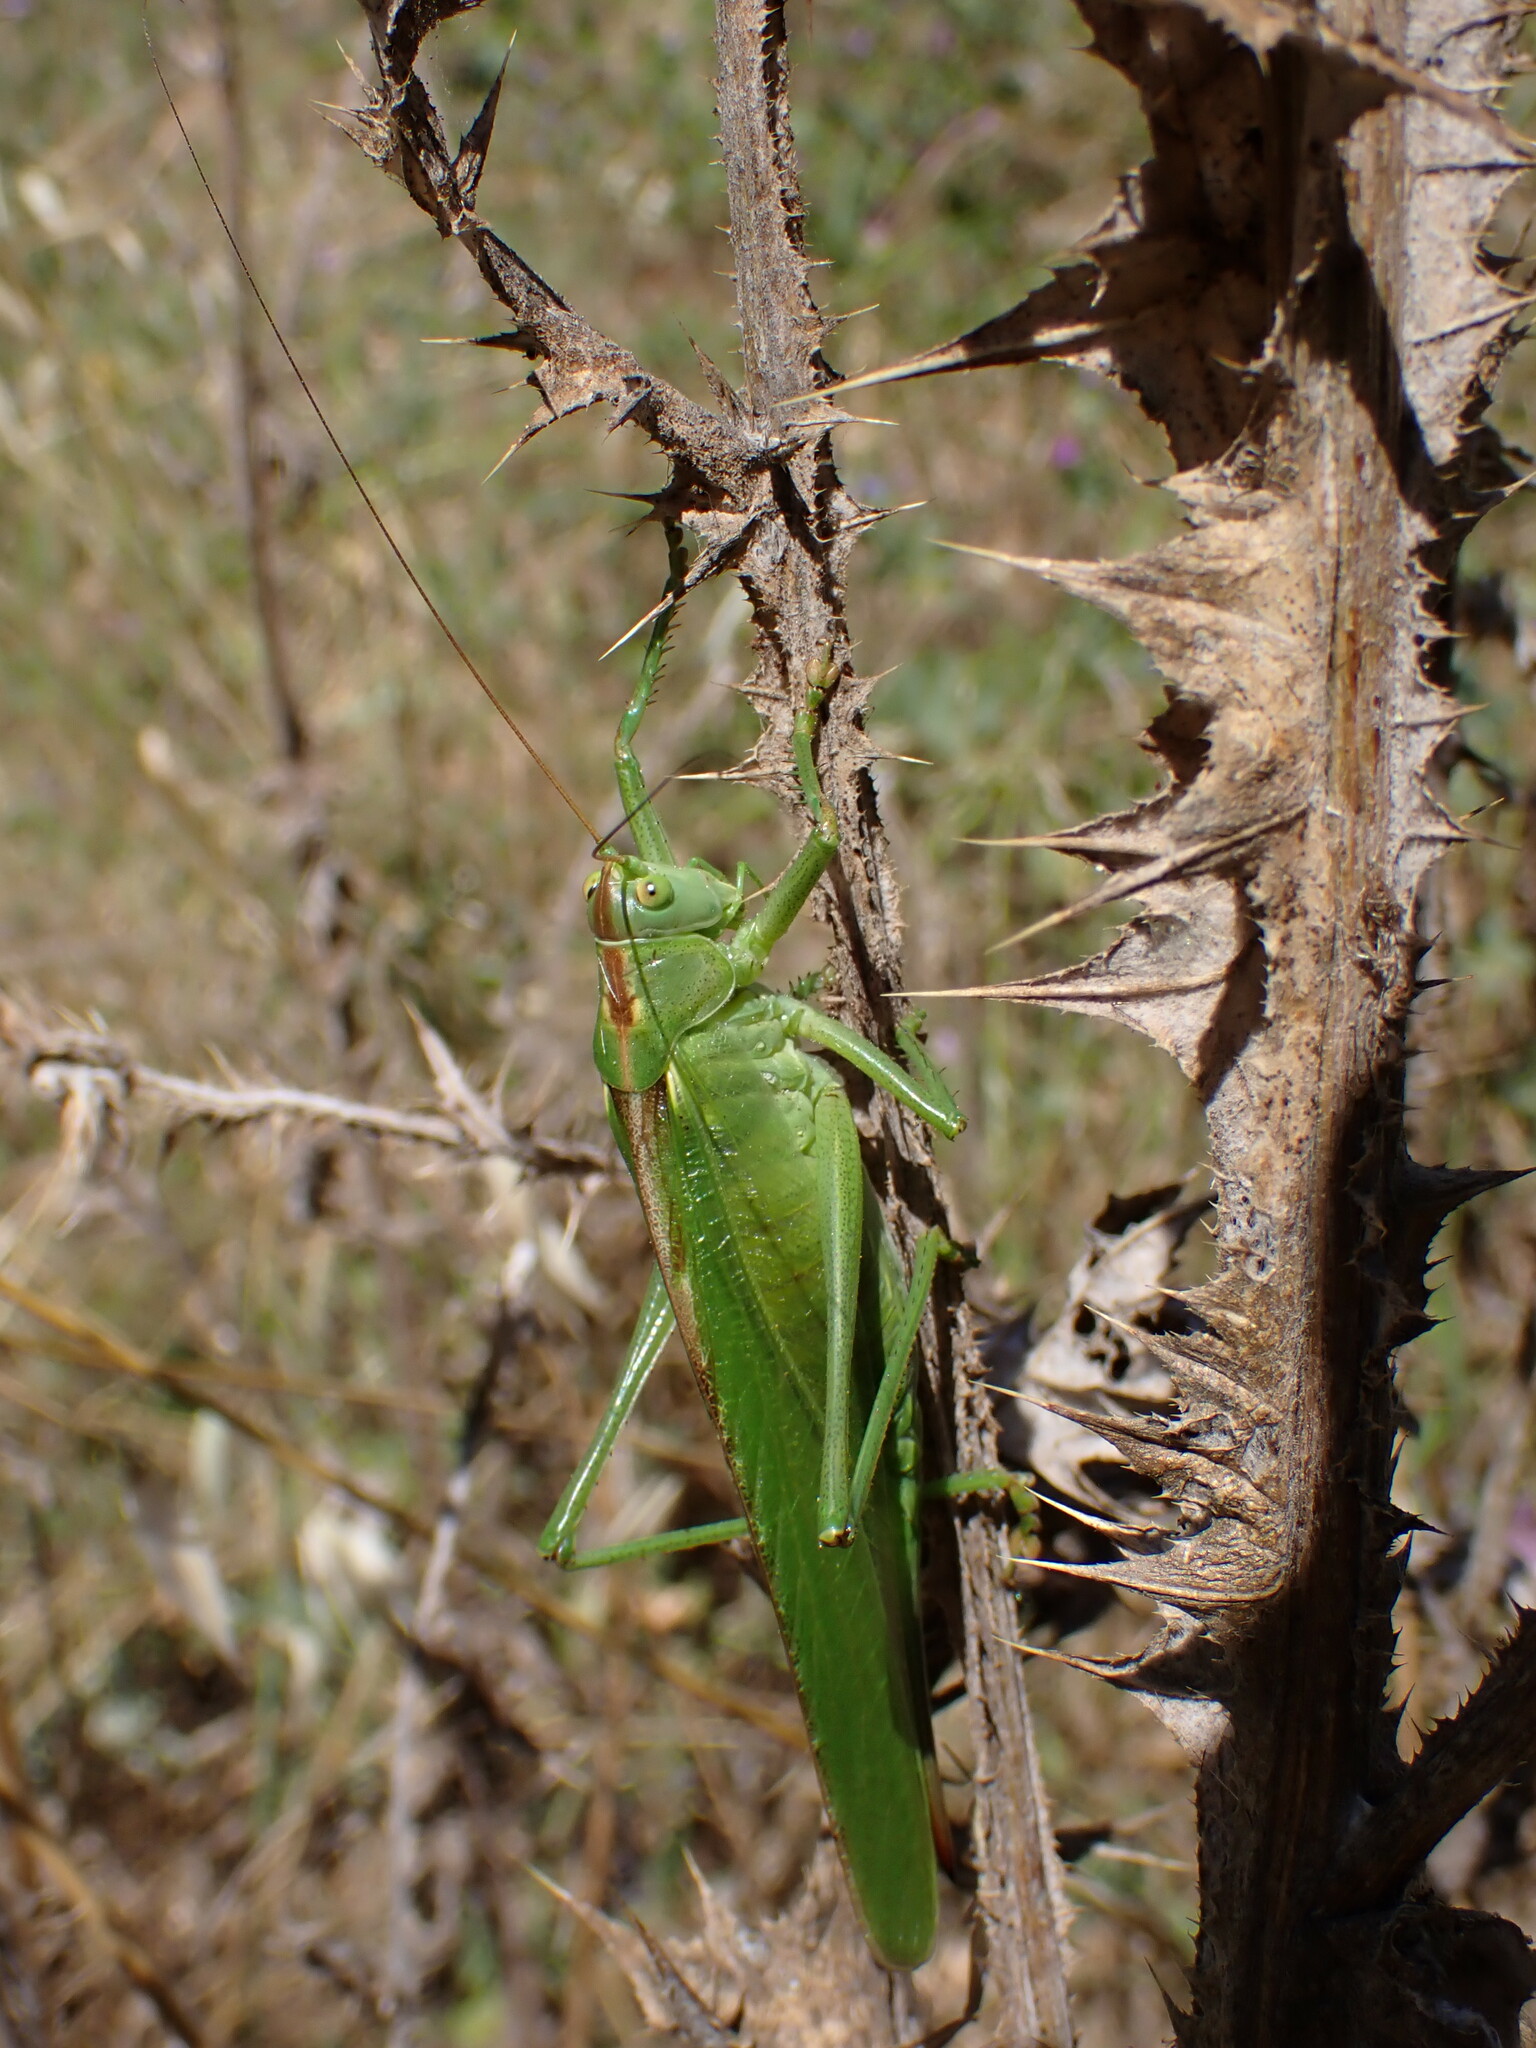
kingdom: Animalia
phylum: Arthropoda
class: Insecta
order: Orthoptera
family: Tettigoniidae
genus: Tettigonia
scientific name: Tettigonia viridissima
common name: Great green bush-cricket
